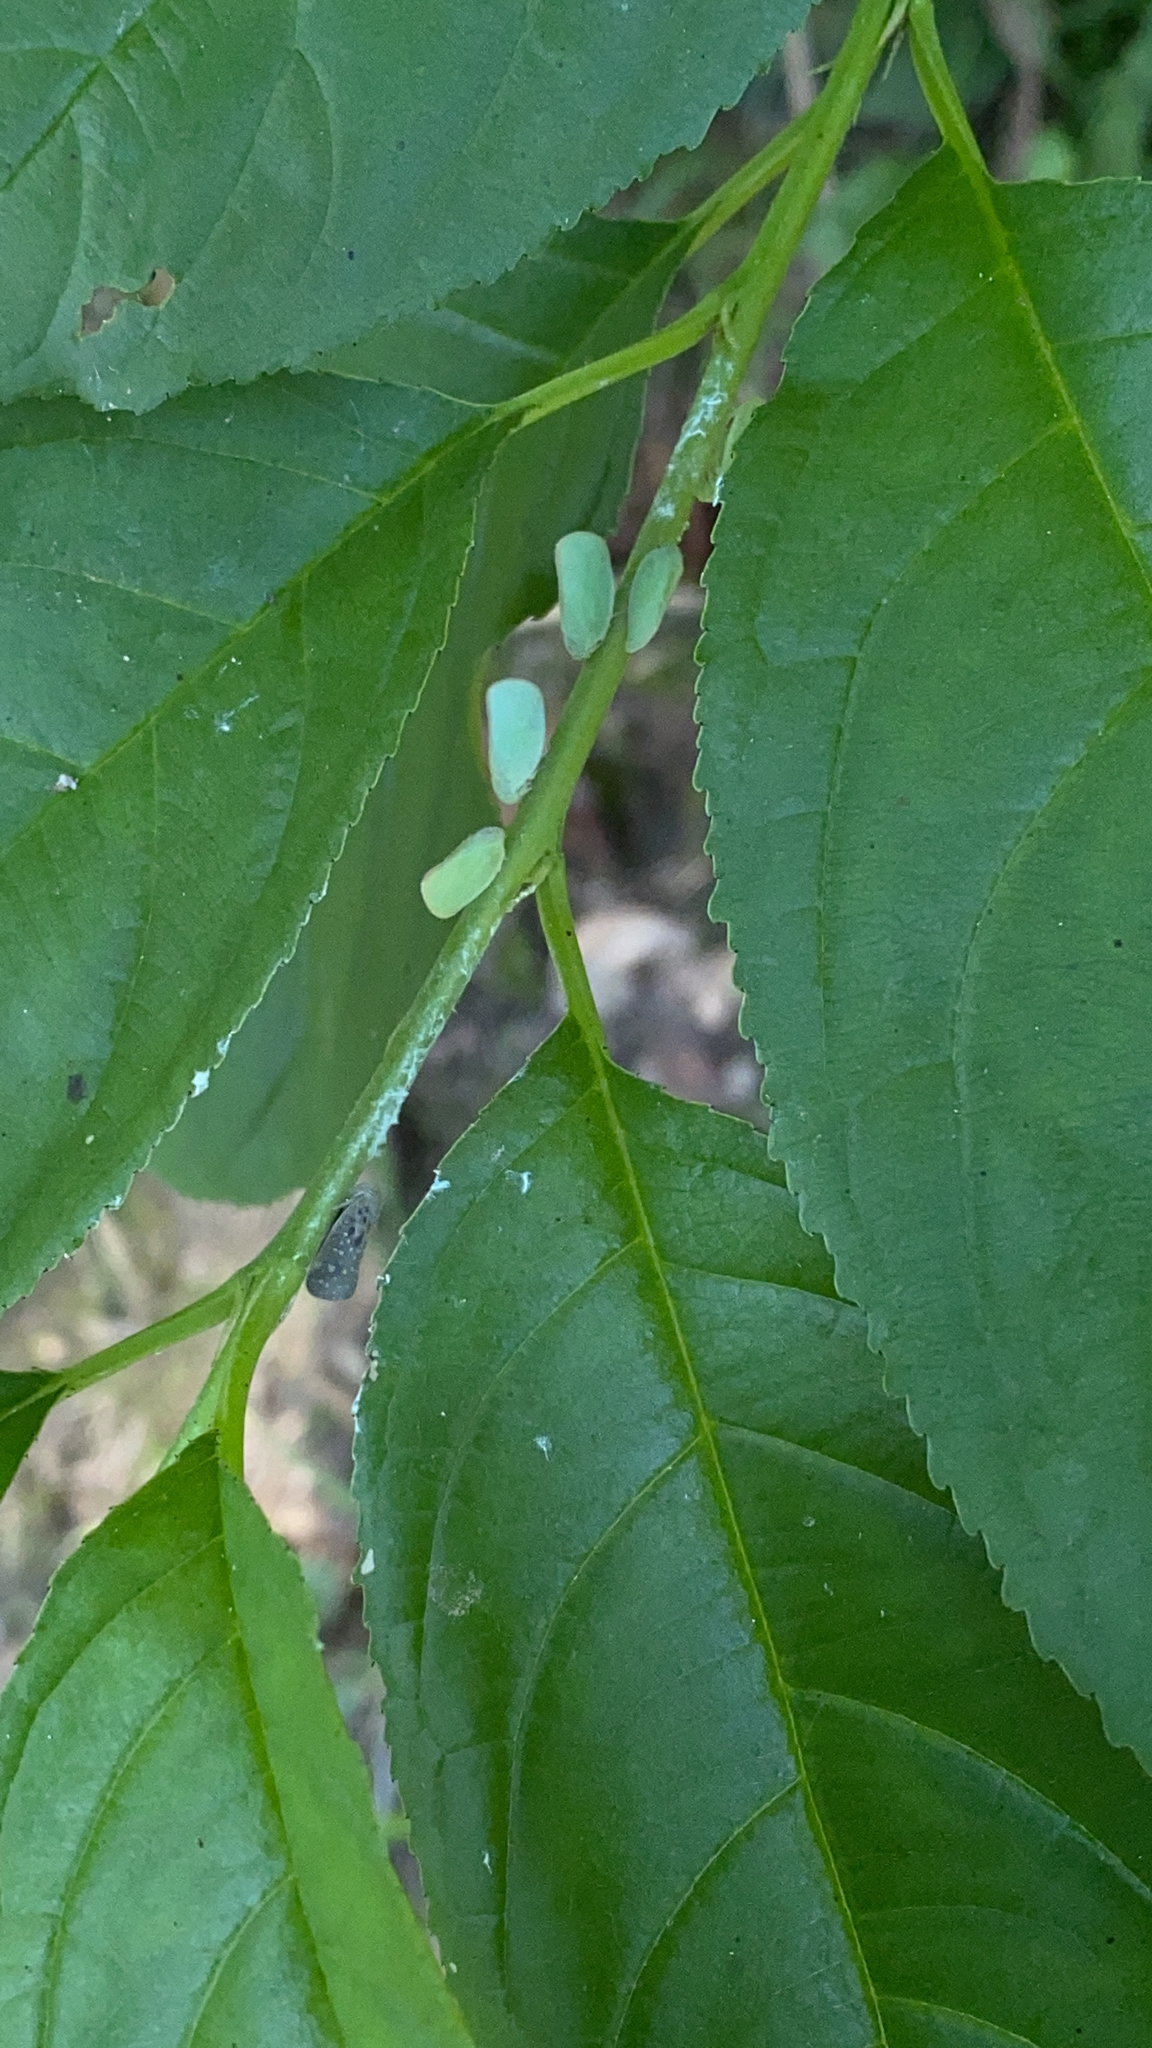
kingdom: Animalia
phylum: Arthropoda
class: Insecta
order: Hemiptera
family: Flatidae
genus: Ormenoides
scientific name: Ormenoides venusta
